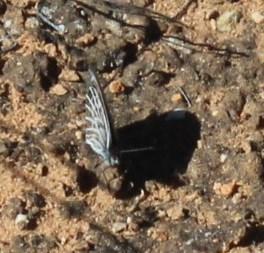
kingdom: Animalia
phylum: Arthropoda
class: Insecta
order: Lepidoptera
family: Nymphalidae
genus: Pseudonympha
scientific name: Pseudonympha trimenii
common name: Trimen’s brown
